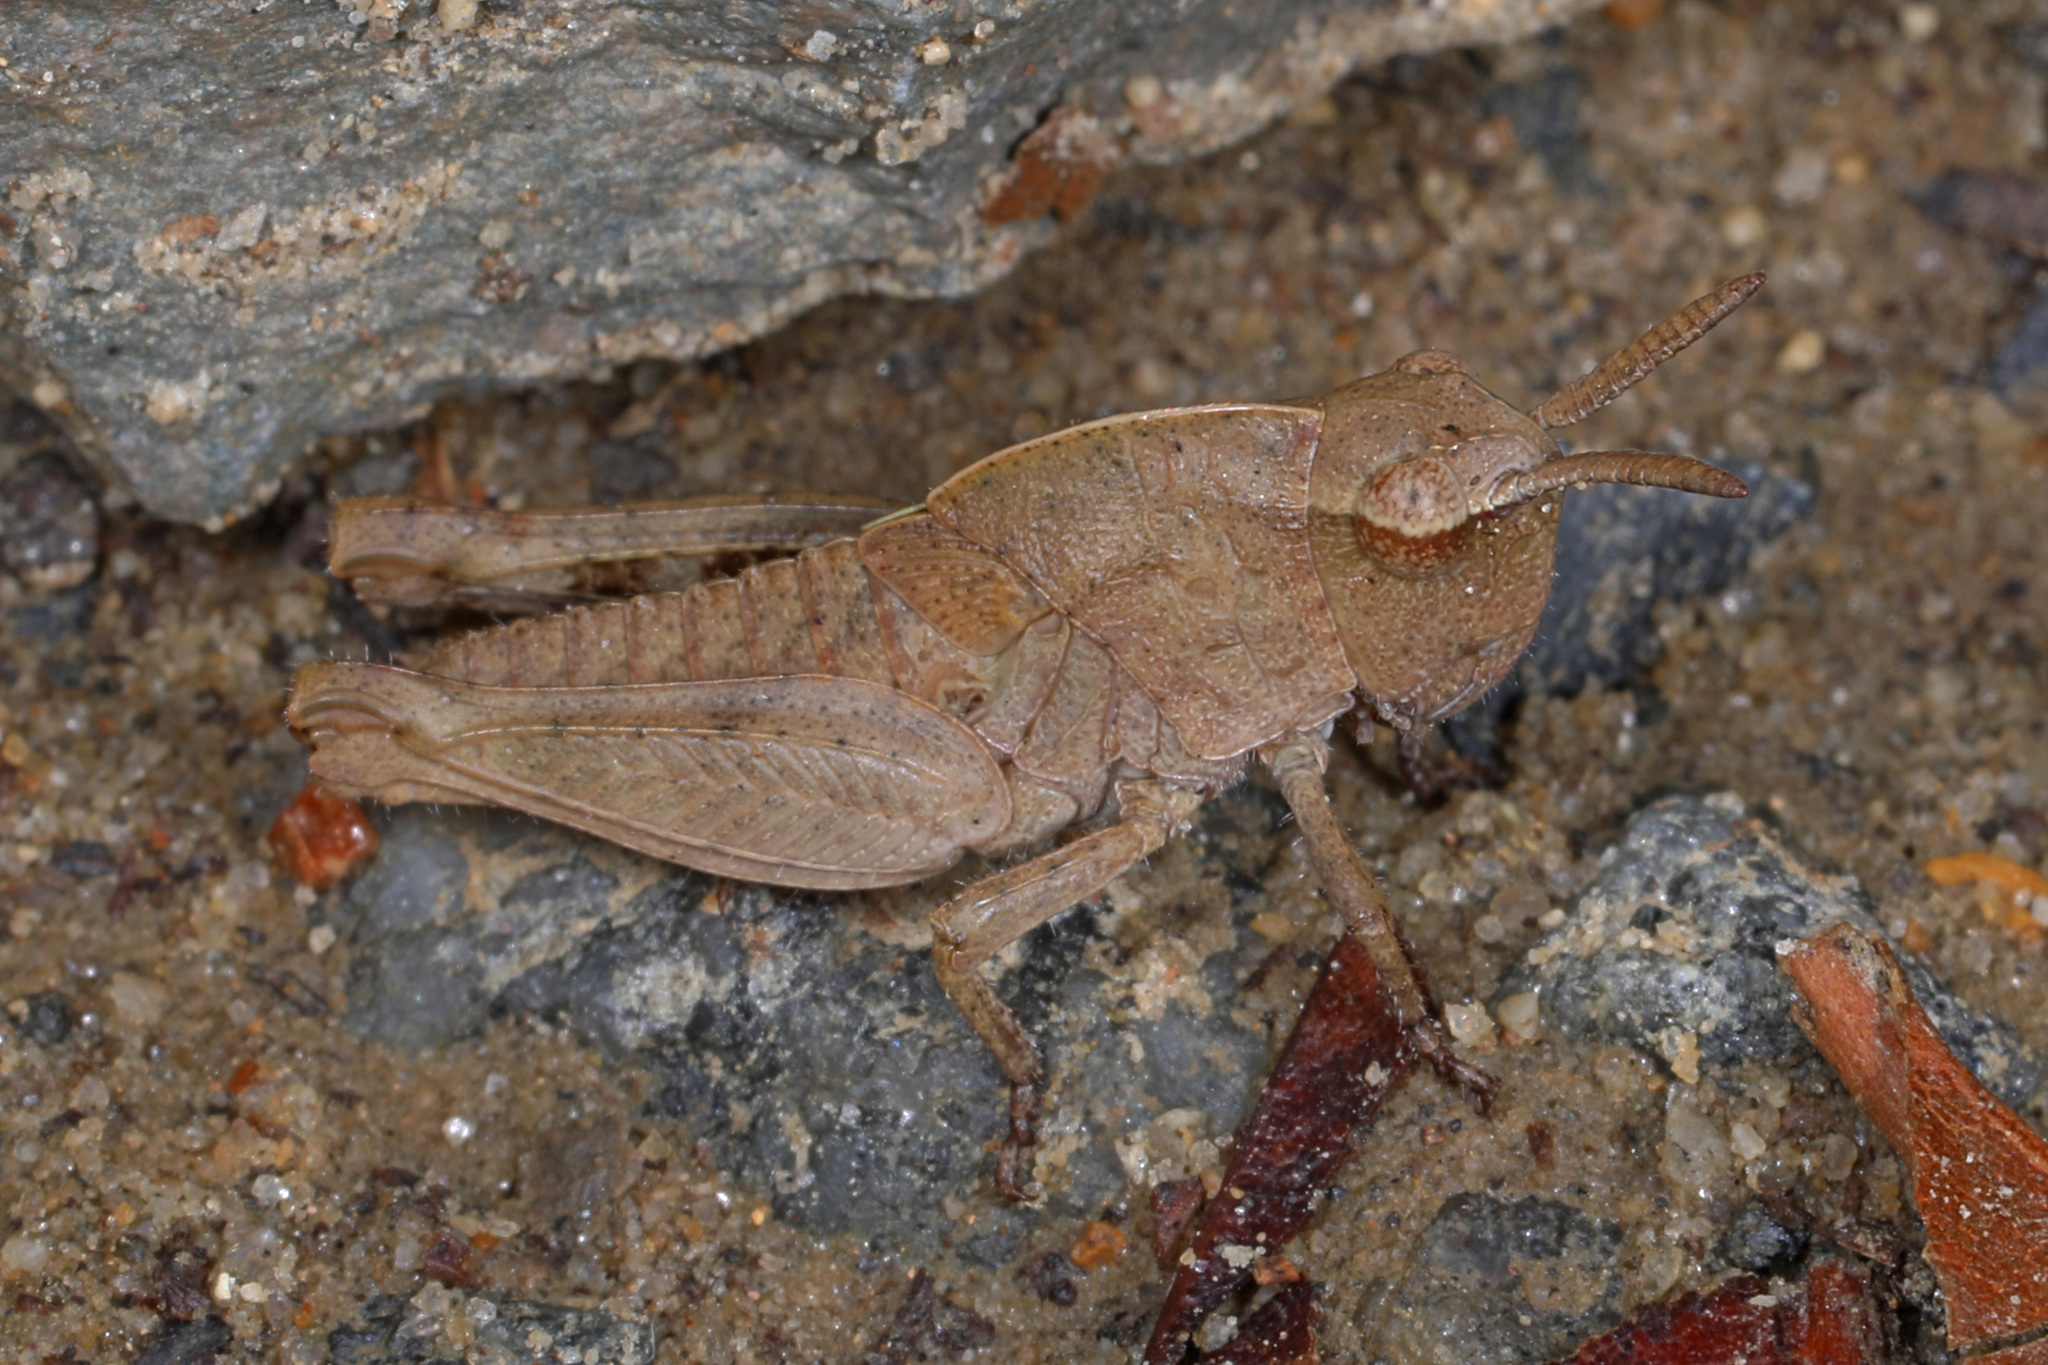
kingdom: Animalia
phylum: Arthropoda
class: Insecta
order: Orthoptera
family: Acrididae
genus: Chortophaga
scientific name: Chortophaga viridifasciata
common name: Green-striped grasshopper
